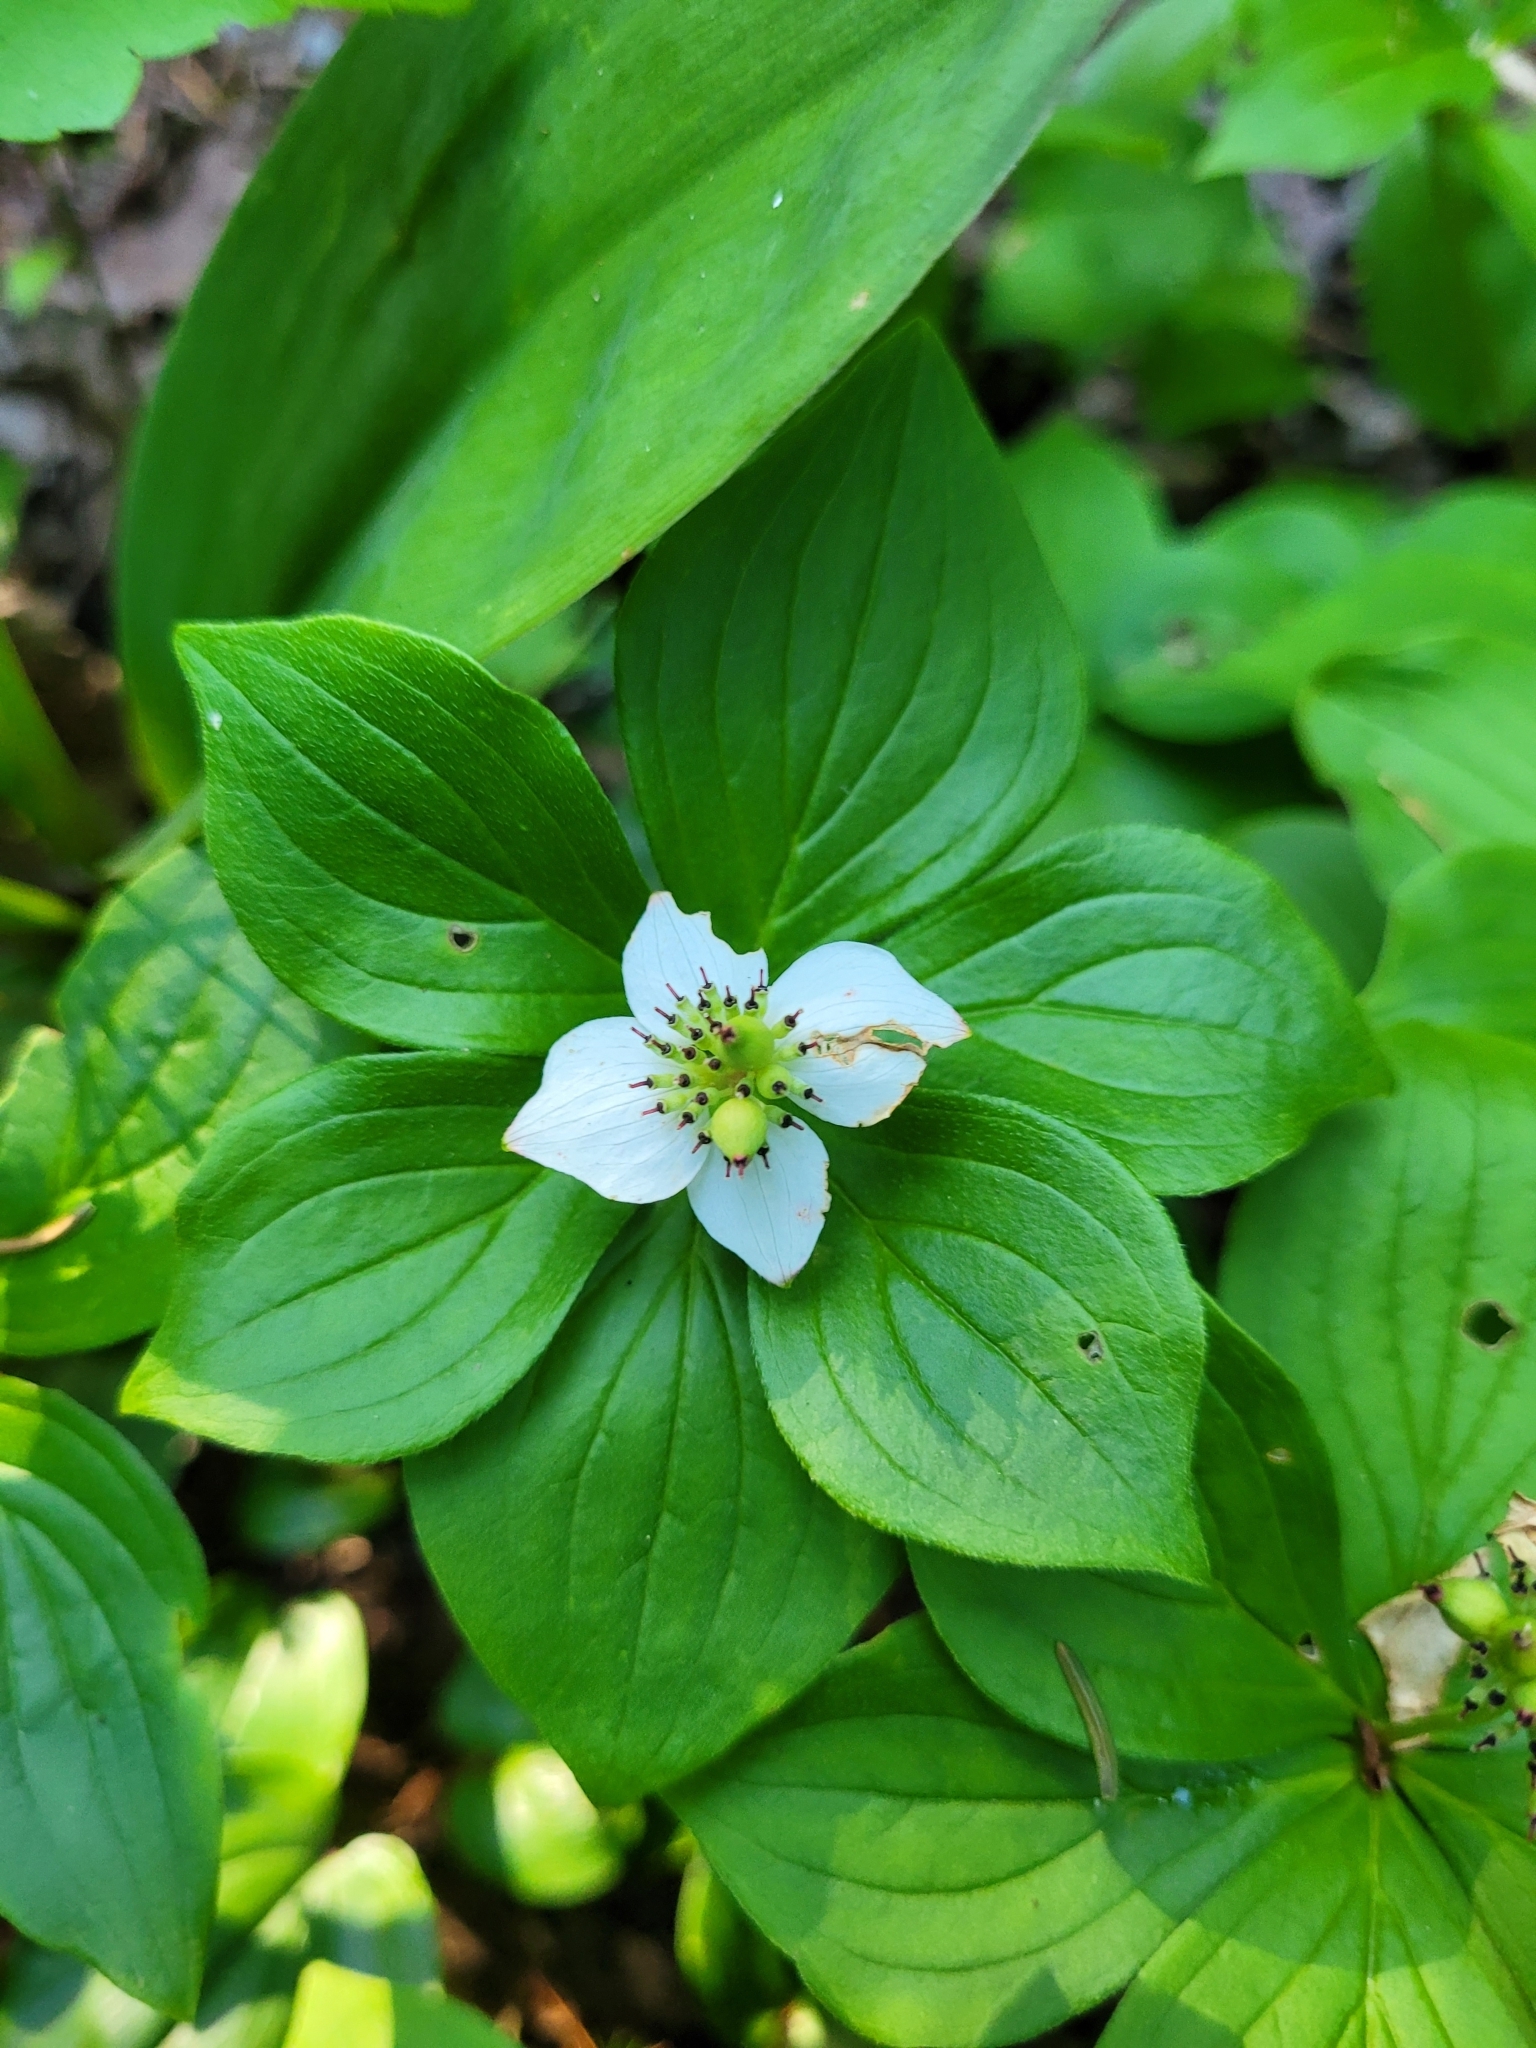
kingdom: Plantae
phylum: Tracheophyta
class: Magnoliopsida
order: Cornales
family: Cornaceae
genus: Cornus
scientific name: Cornus canadensis
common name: Creeping dogwood
